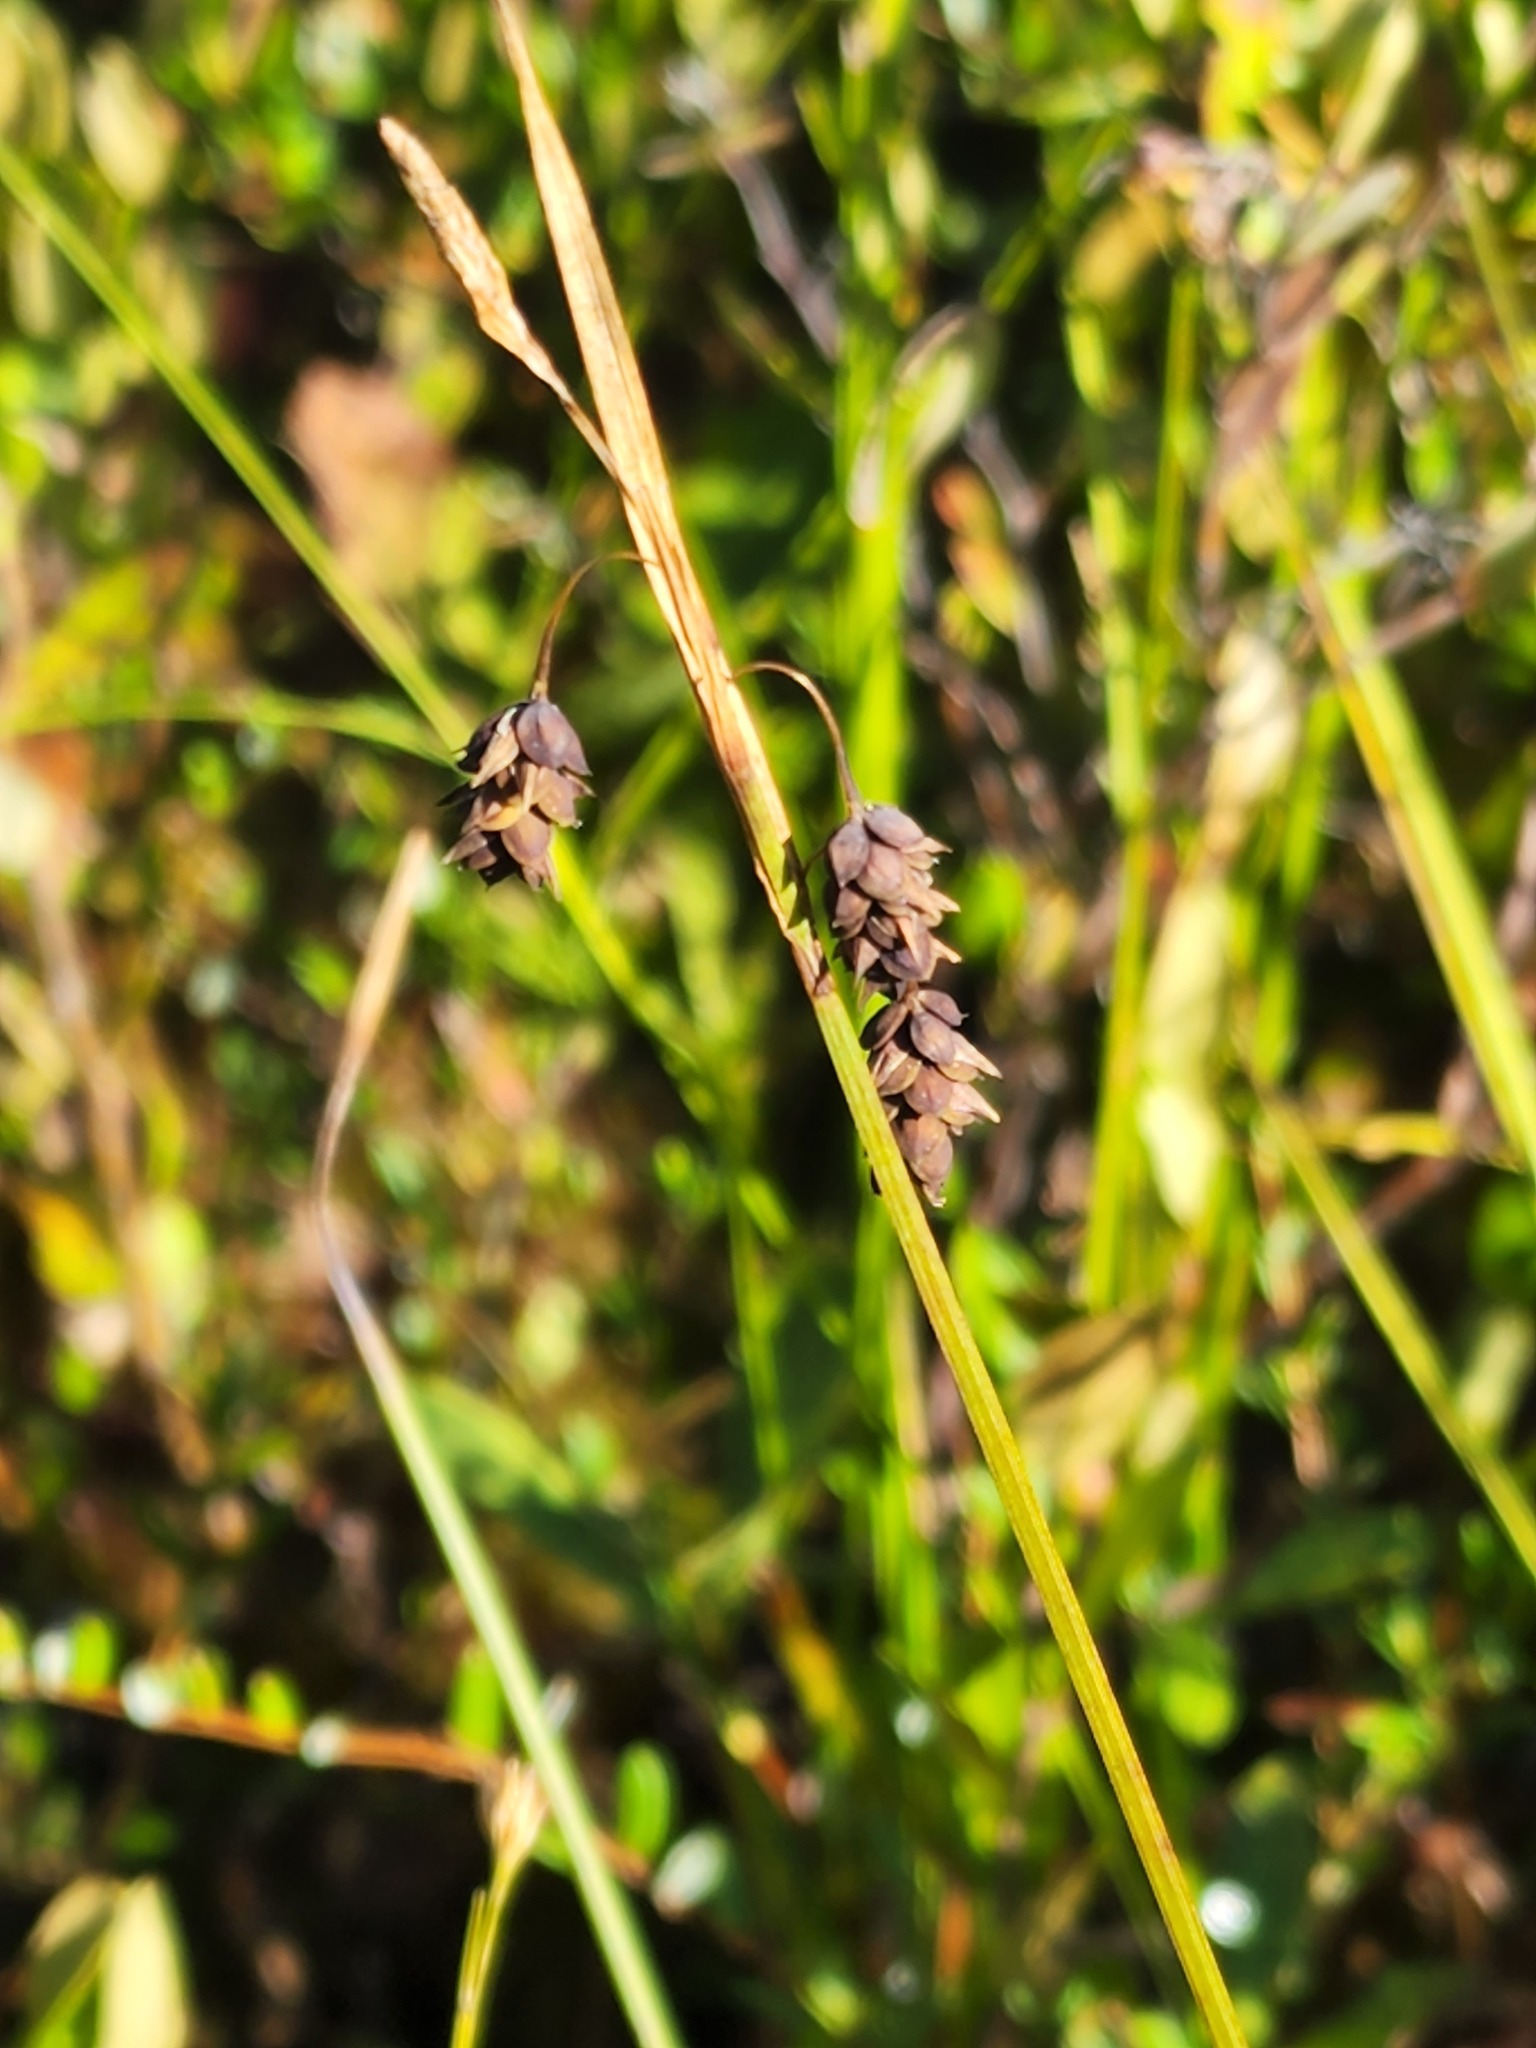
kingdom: Plantae
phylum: Tracheophyta
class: Liliopsida
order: Poales
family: Cyperaceae
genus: Carex
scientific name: Carex magellanica
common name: Bog sedge
